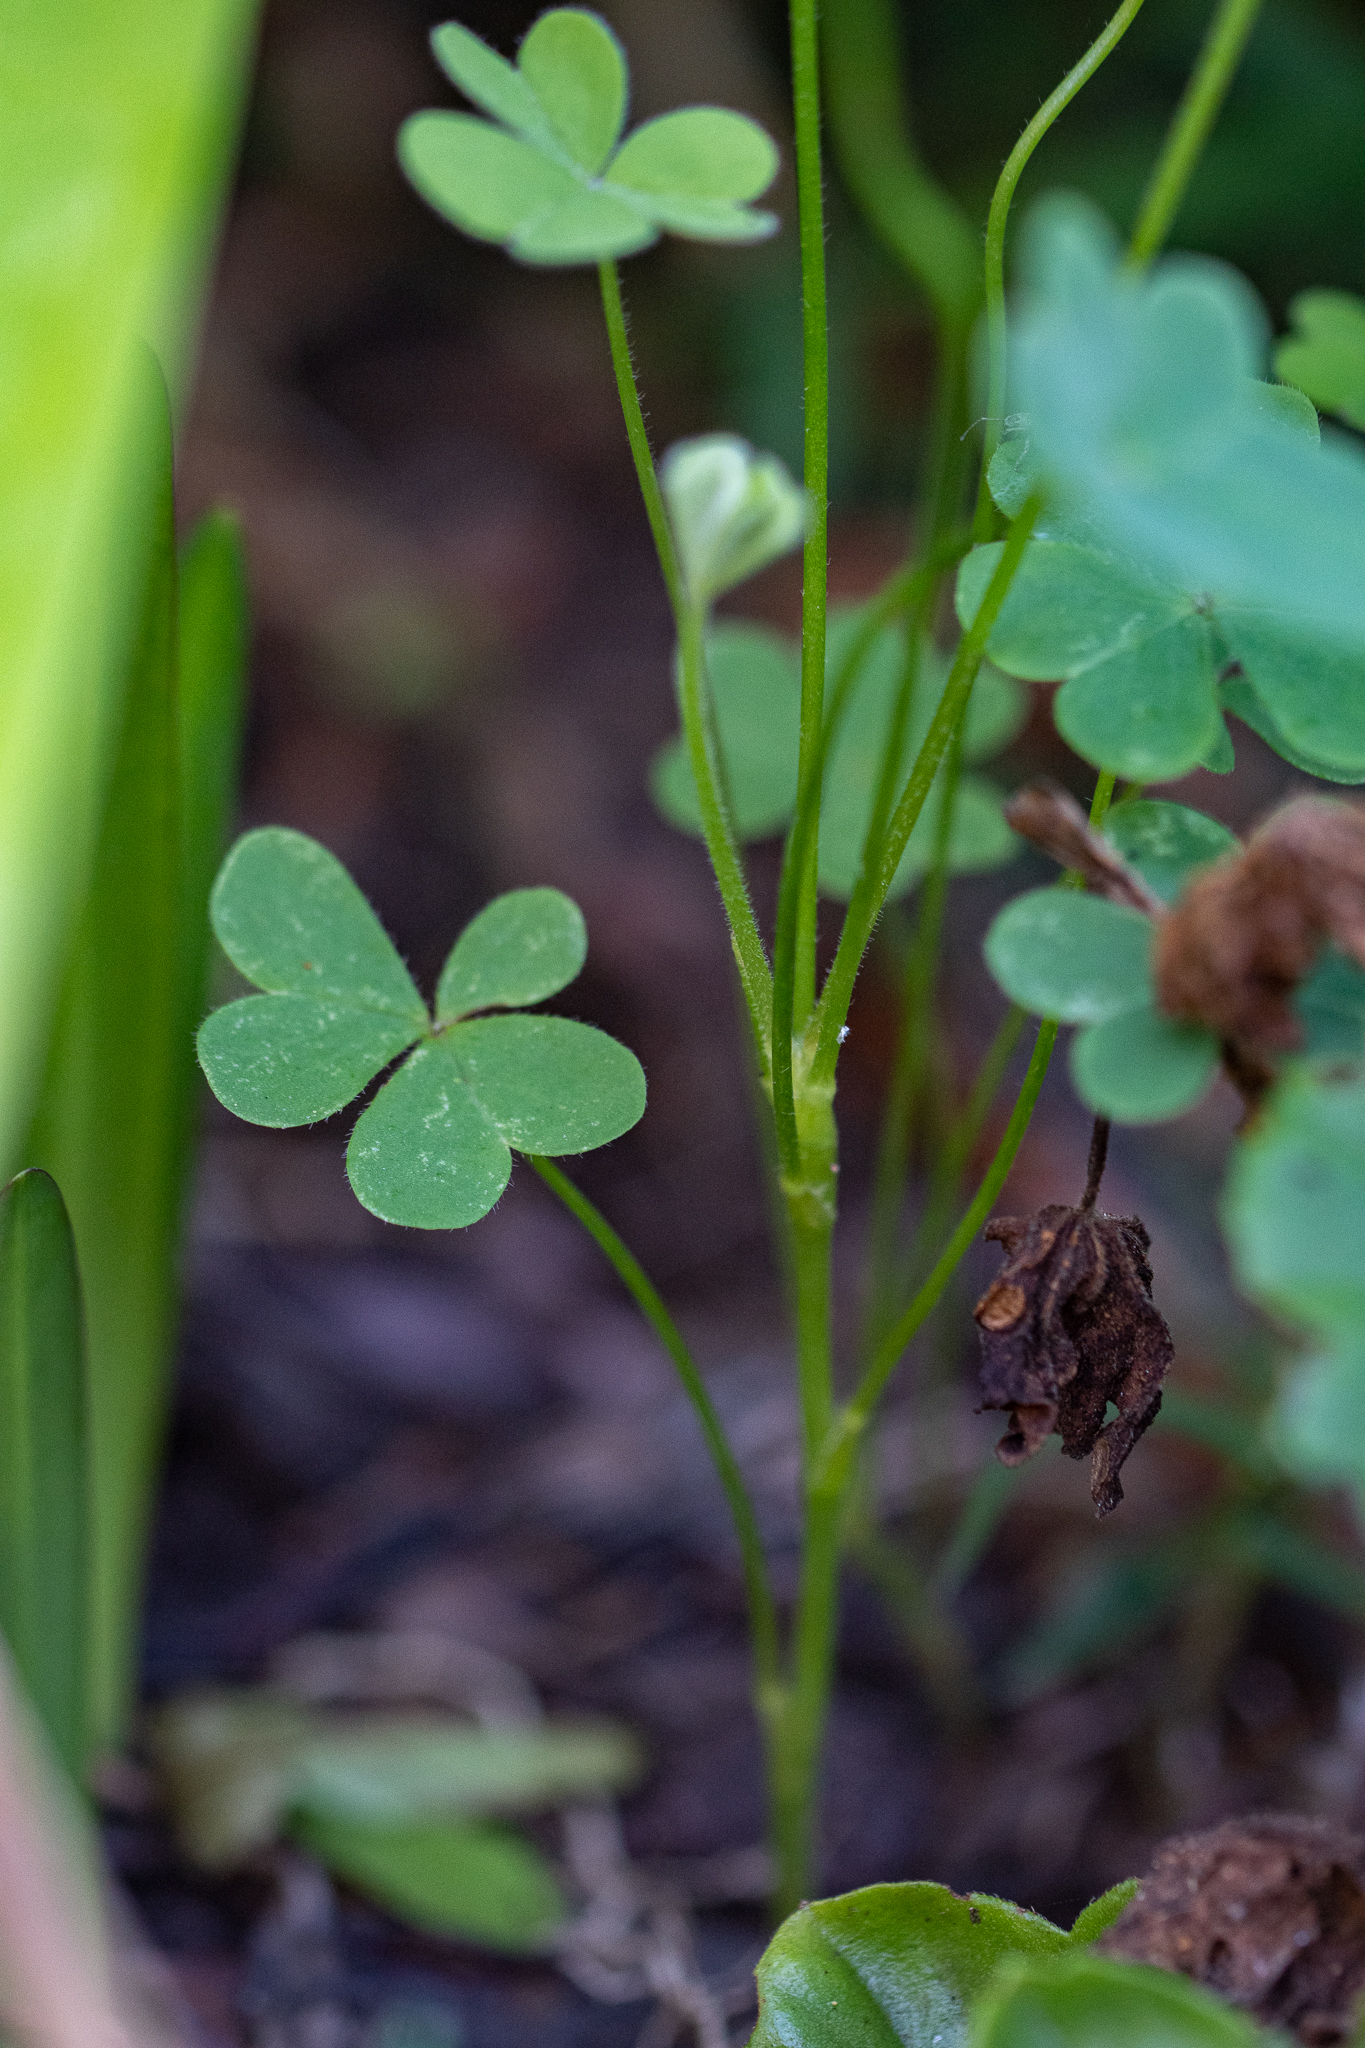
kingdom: Plantae
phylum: Tracheophyta
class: Magnoliopsida
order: Oxalidales
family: Oxalidaceae
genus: Oxalis
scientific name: Oxalis pes-caprae
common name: Bermuda-buttercup
